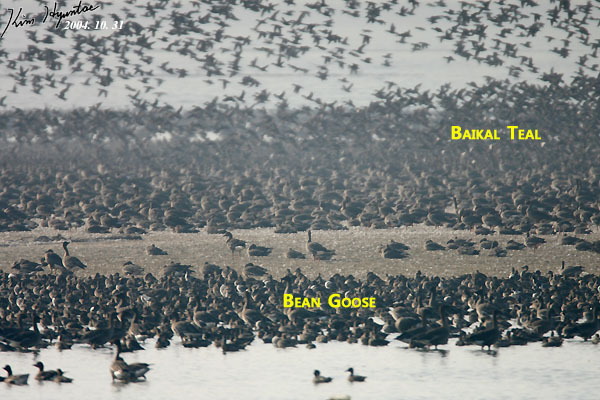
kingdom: Animalia
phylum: Chordata
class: Aves
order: Anseriformes
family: Anatidae
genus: Sibirionetta
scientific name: Sibirionetta formosa
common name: Baikal teal
